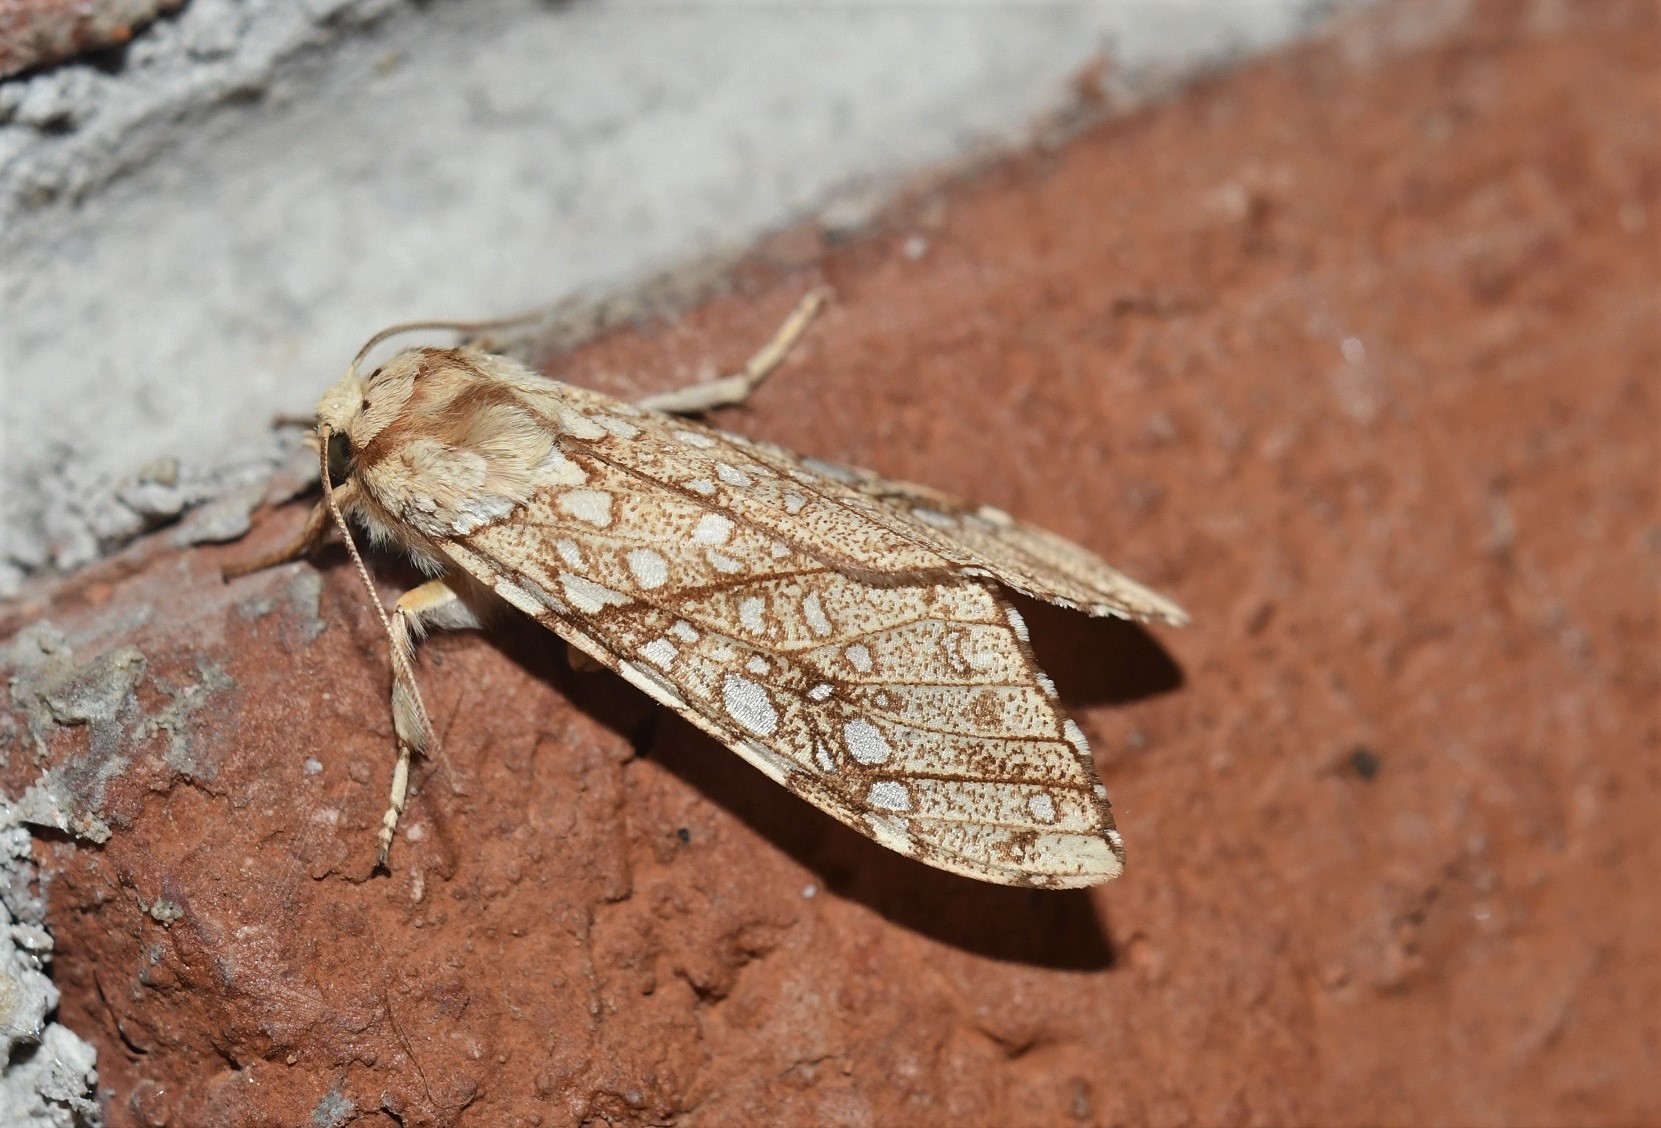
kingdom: Animalia
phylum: Arthropoda
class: Insecta
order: Lepidoptera
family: Erebidae
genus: Lophocampa
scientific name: Lophocampa propinqua
